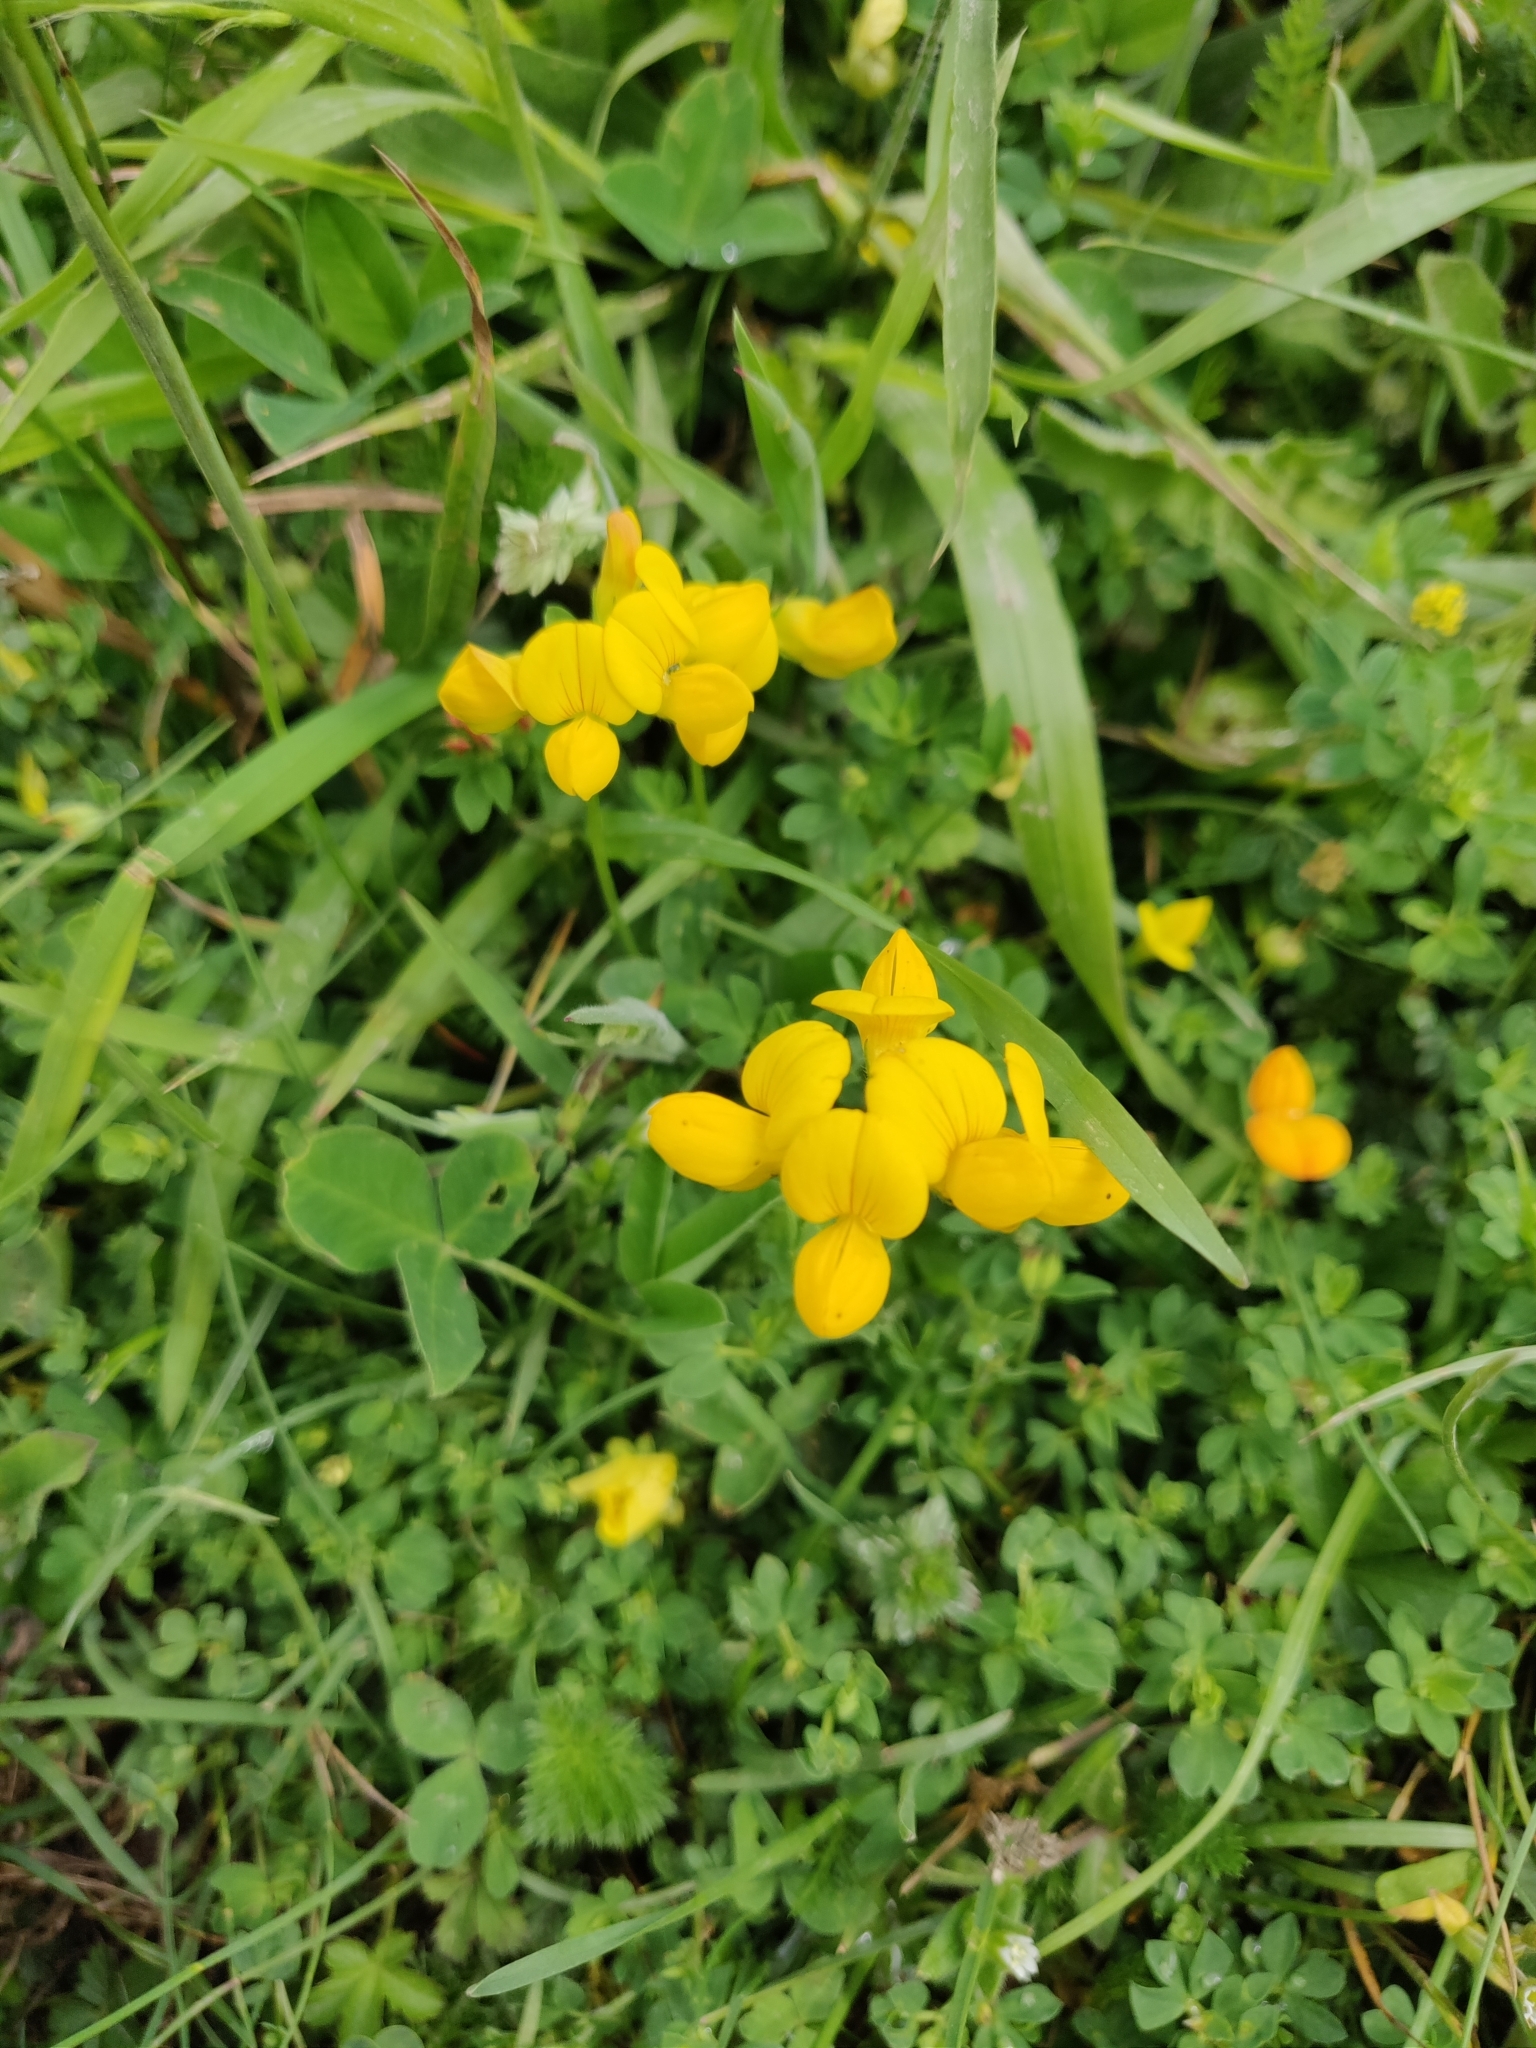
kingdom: Plantae
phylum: Tracheophyta
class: Magnoliopsida
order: Fabales
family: Fabaceae
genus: Lotus
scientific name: Lotus corniculatus
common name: Common bird's-foot-trefoil
